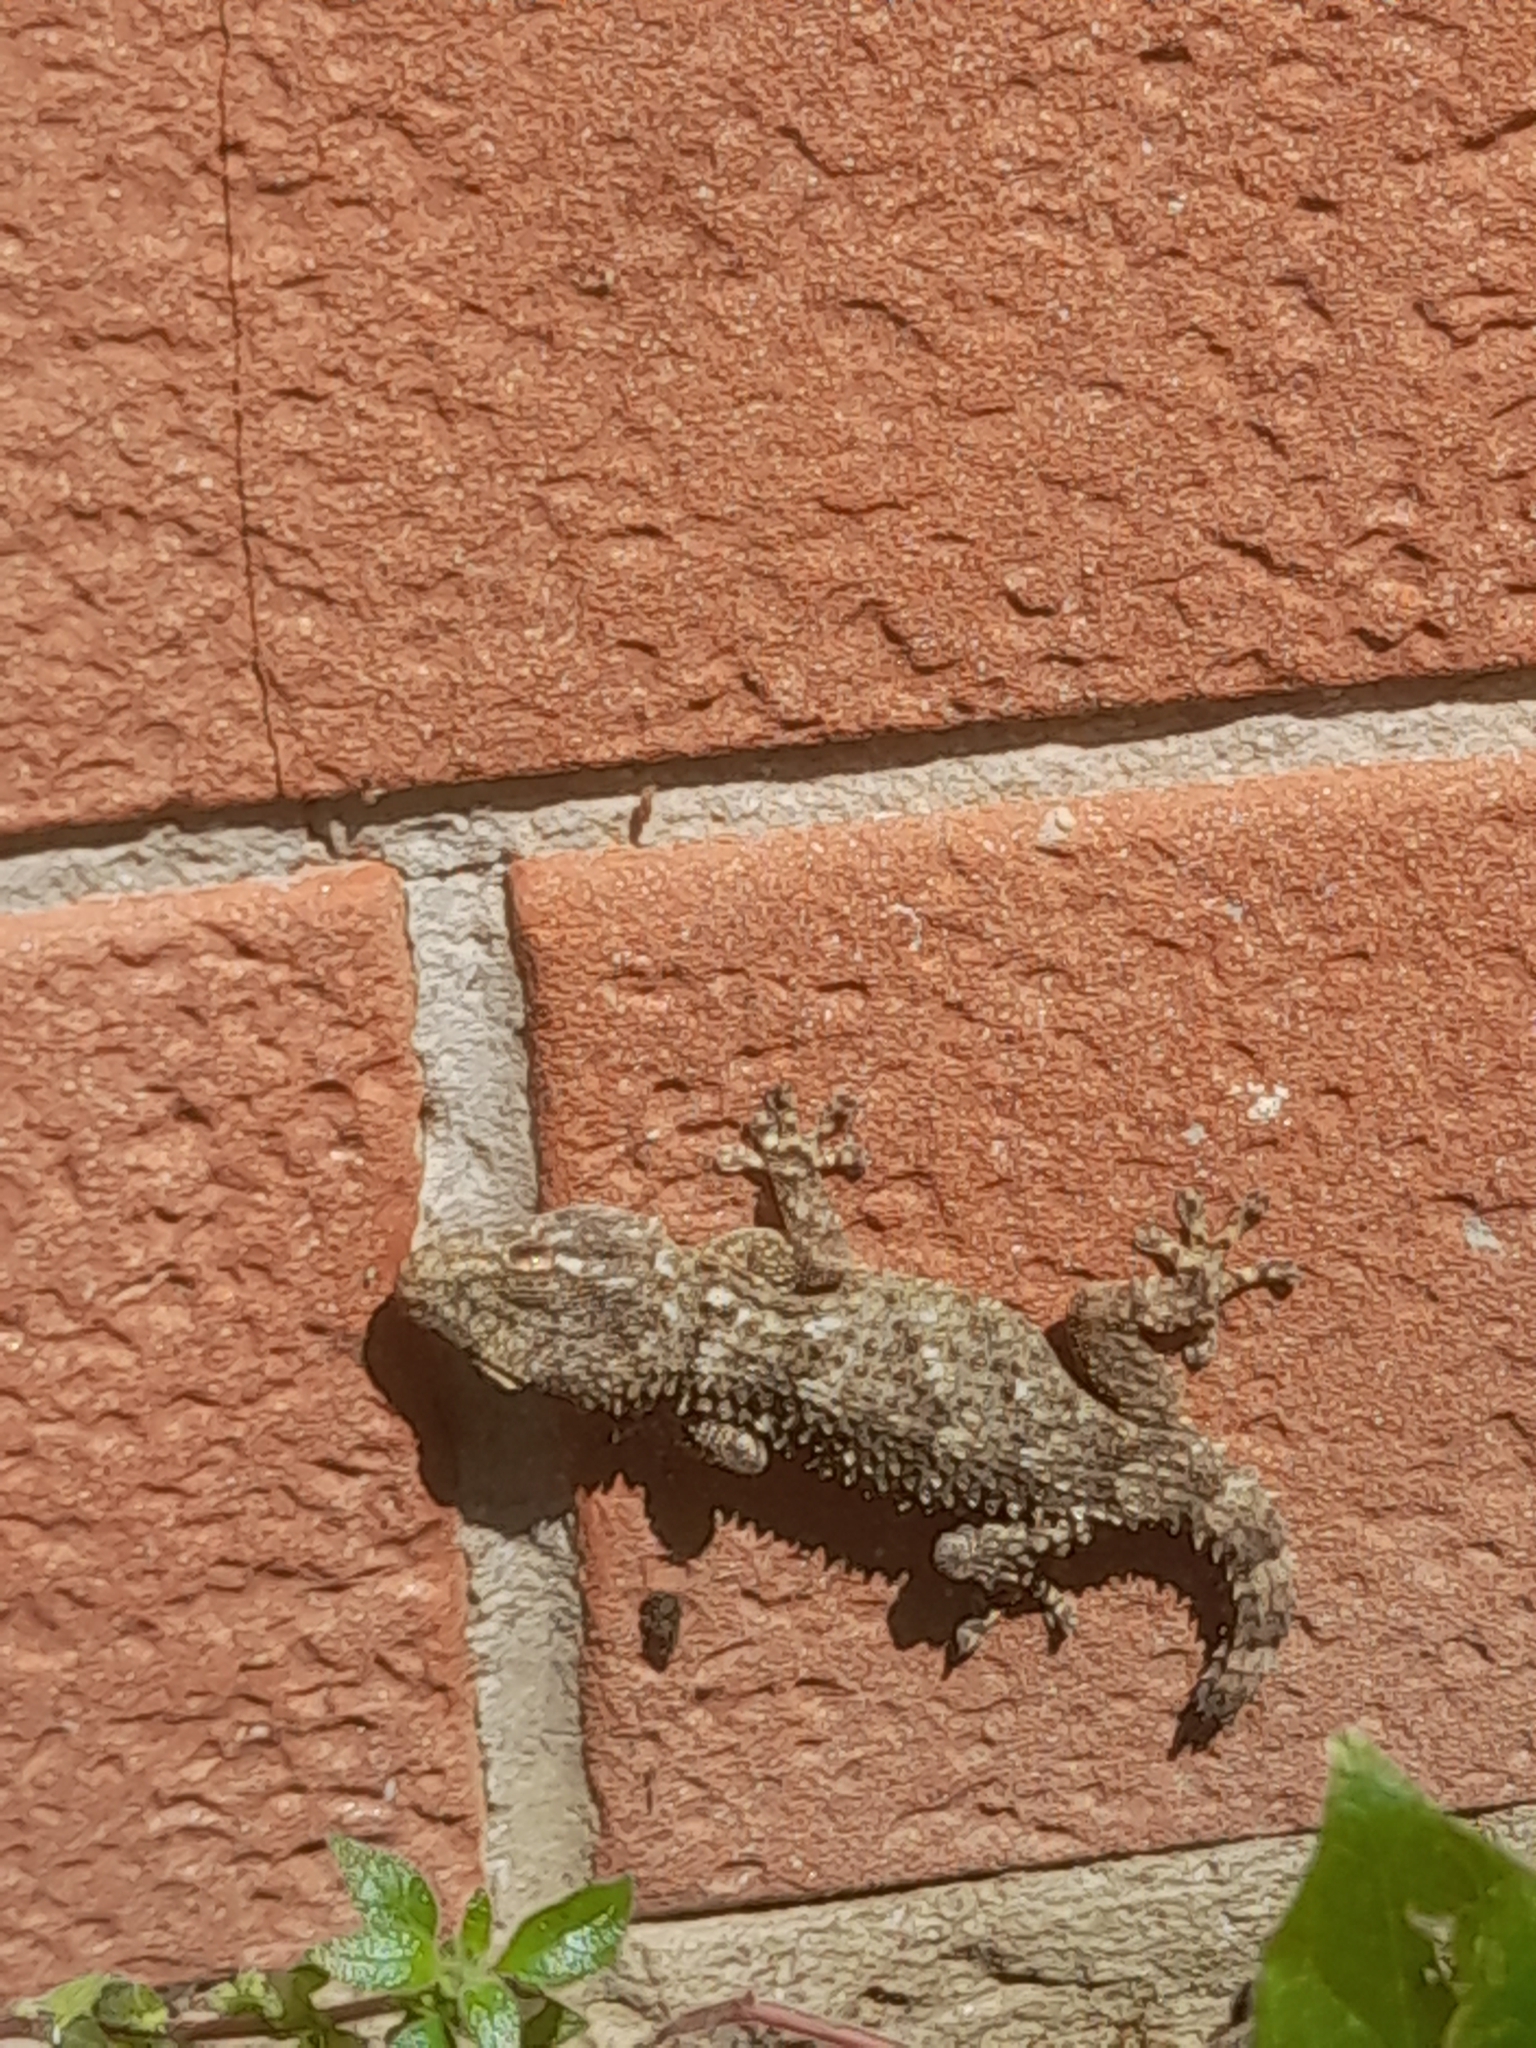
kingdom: Animalia
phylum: Chordata
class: Squamata
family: Phyllodactylidae
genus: Tarentola
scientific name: Tarentola mauritanica
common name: Moorish gecko
